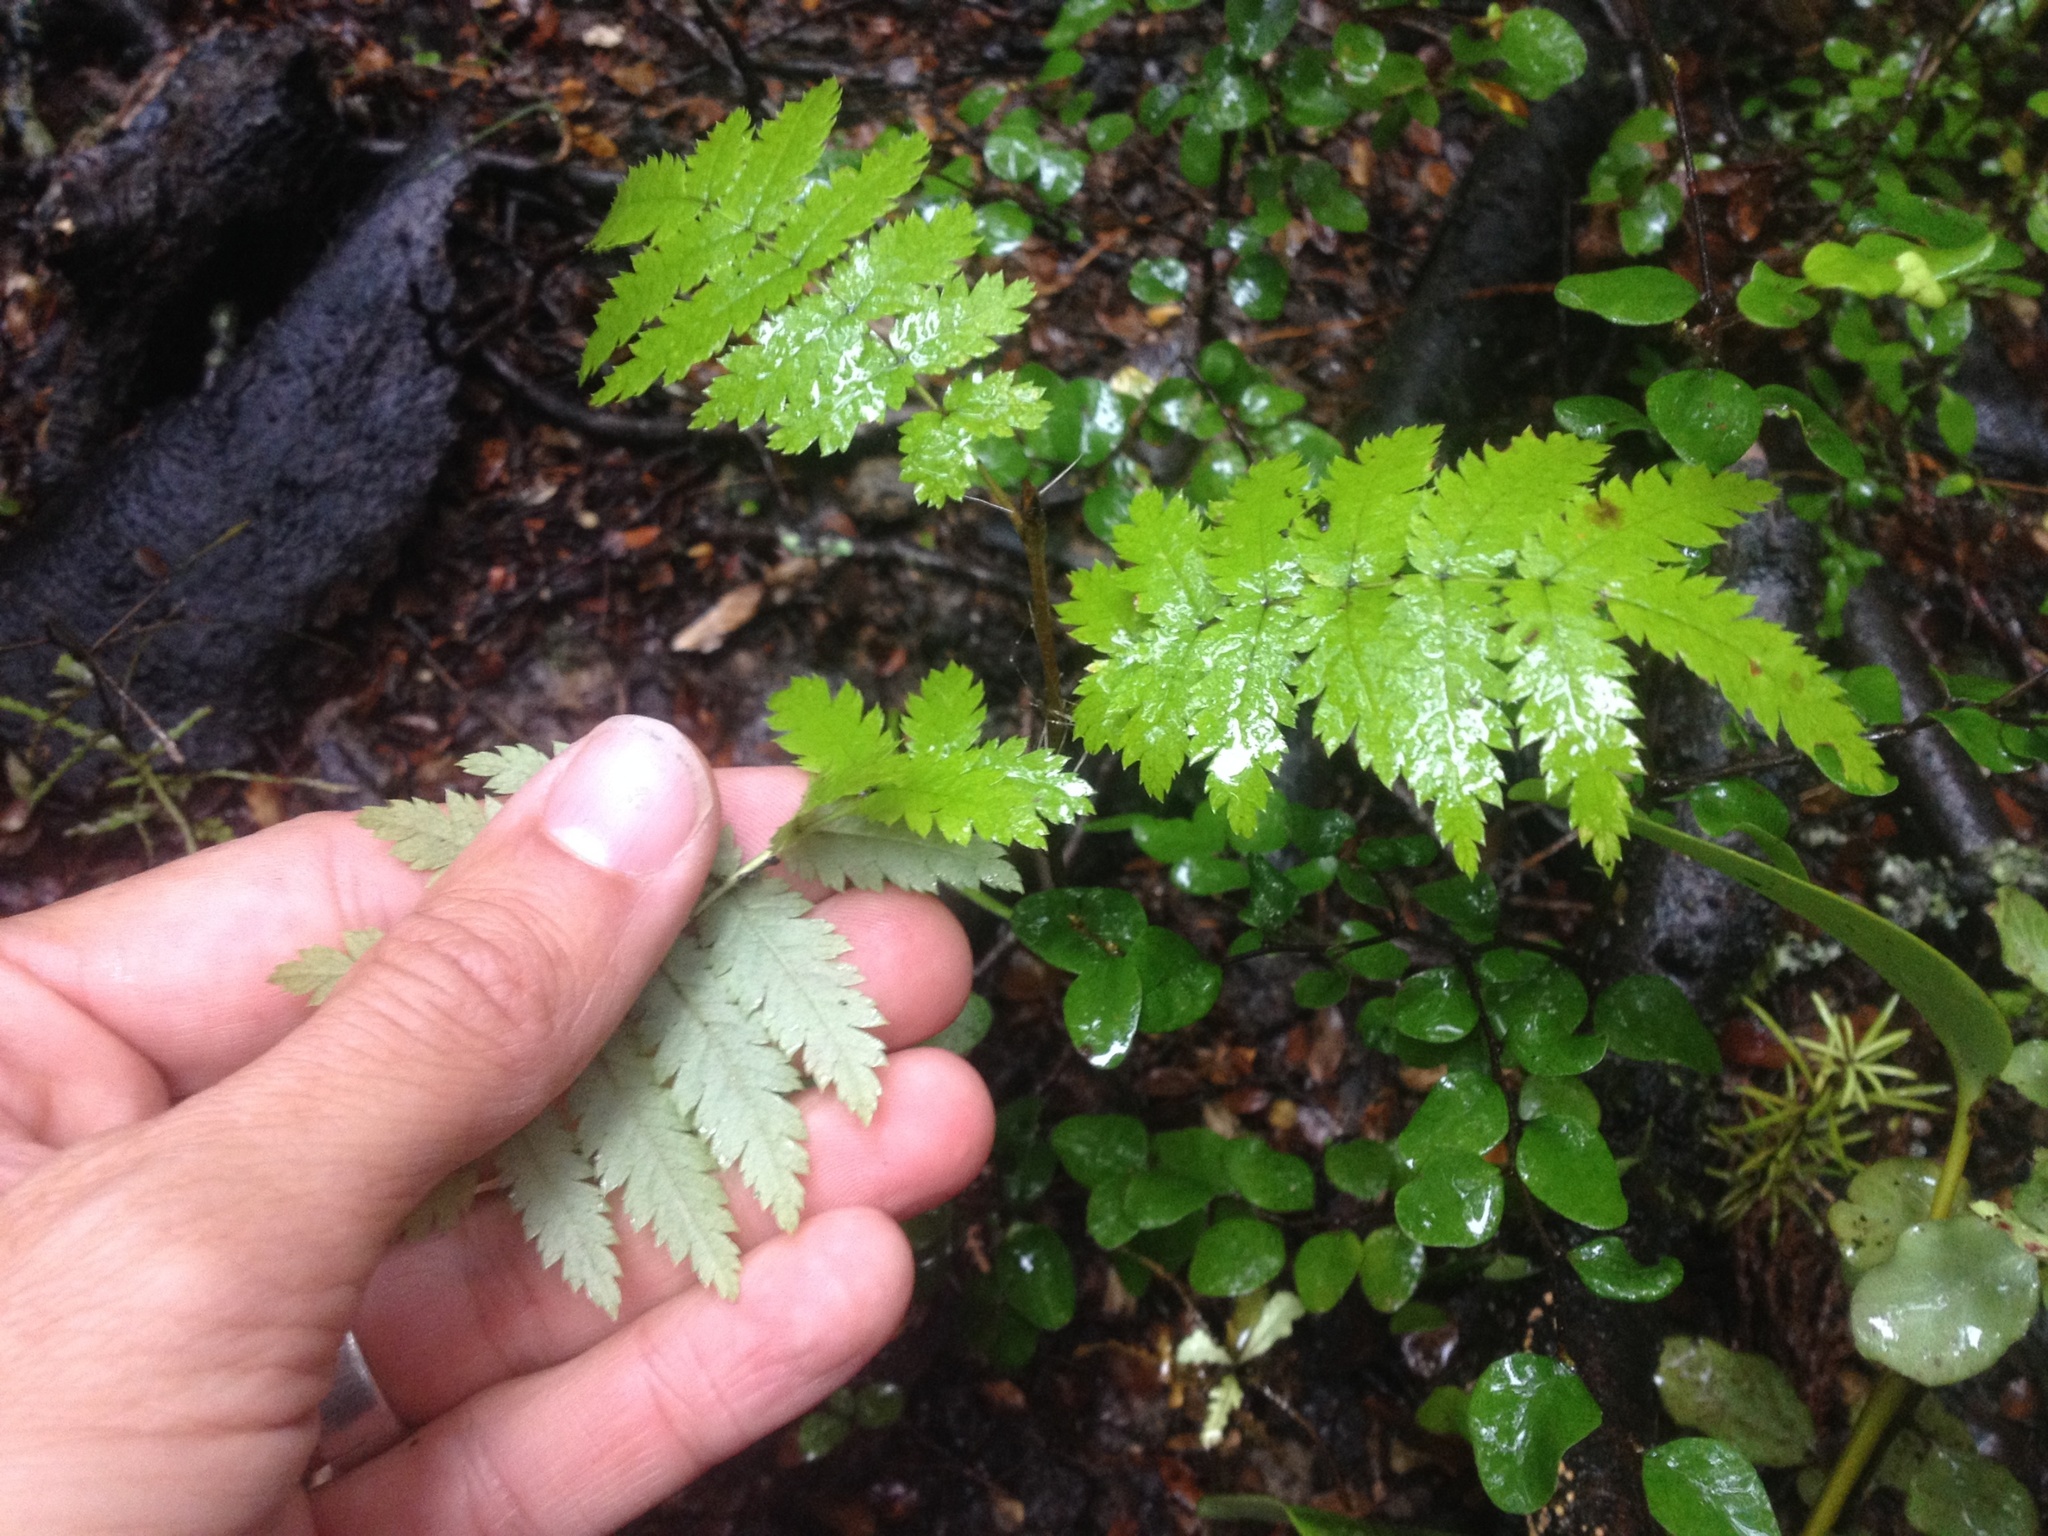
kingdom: Plantae
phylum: Tracheophyta
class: Magnoliopsida
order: Rosales
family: Rosaceae
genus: Sorbus
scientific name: Sorbus aucuparia
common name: Rowan
